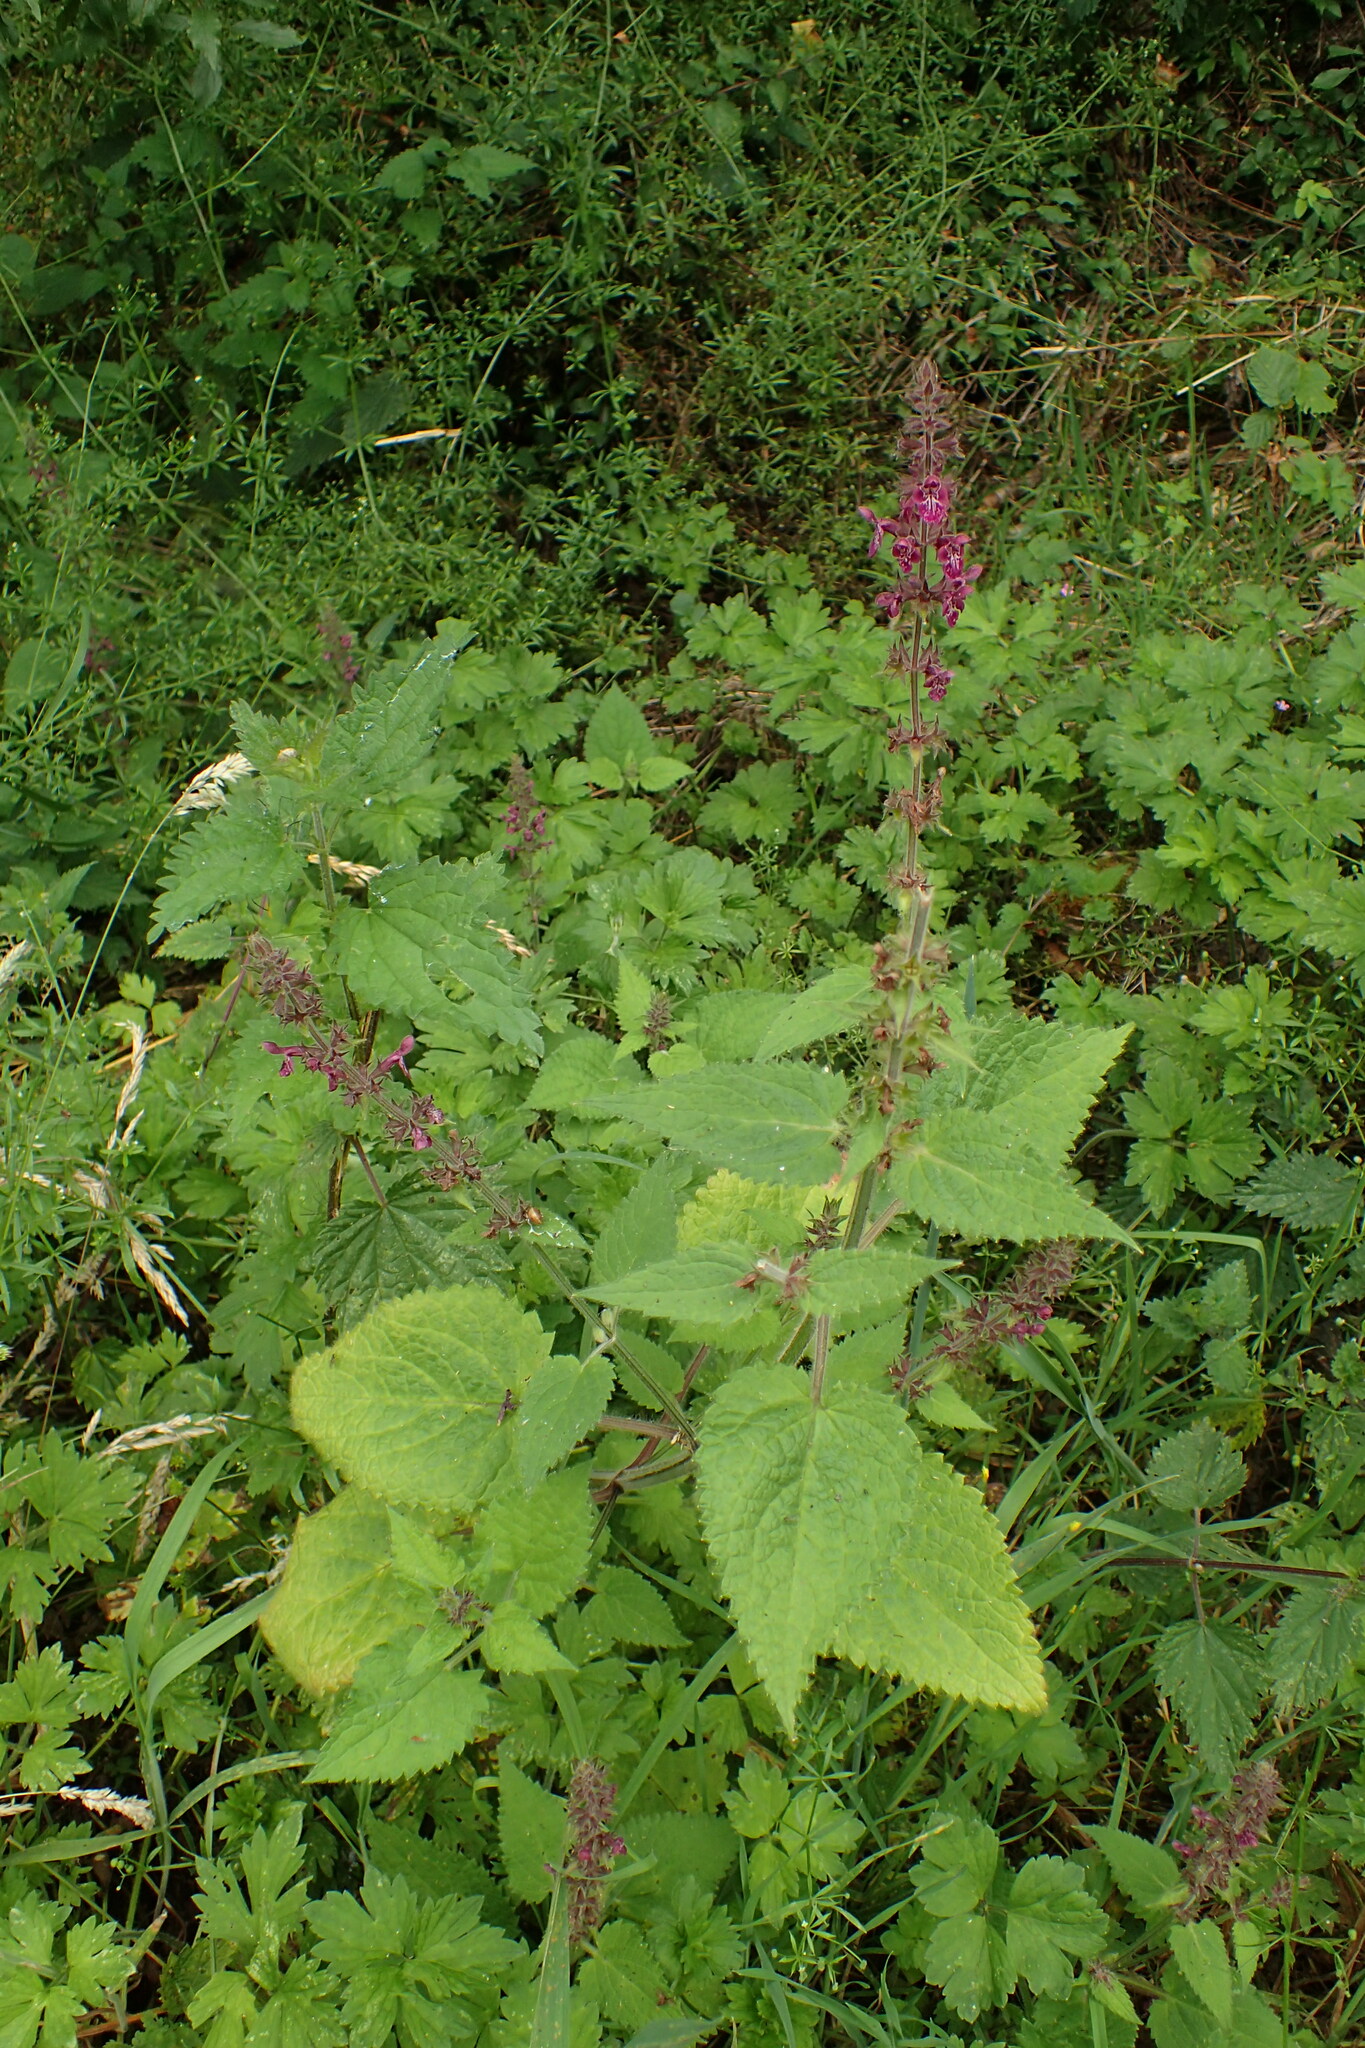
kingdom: Plantae
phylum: Tracheophyta
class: Magnoliopsida
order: Lamiales
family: Lamiaceae
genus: Stachys
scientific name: Stachys sylvatica
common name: Hedge woundwort
